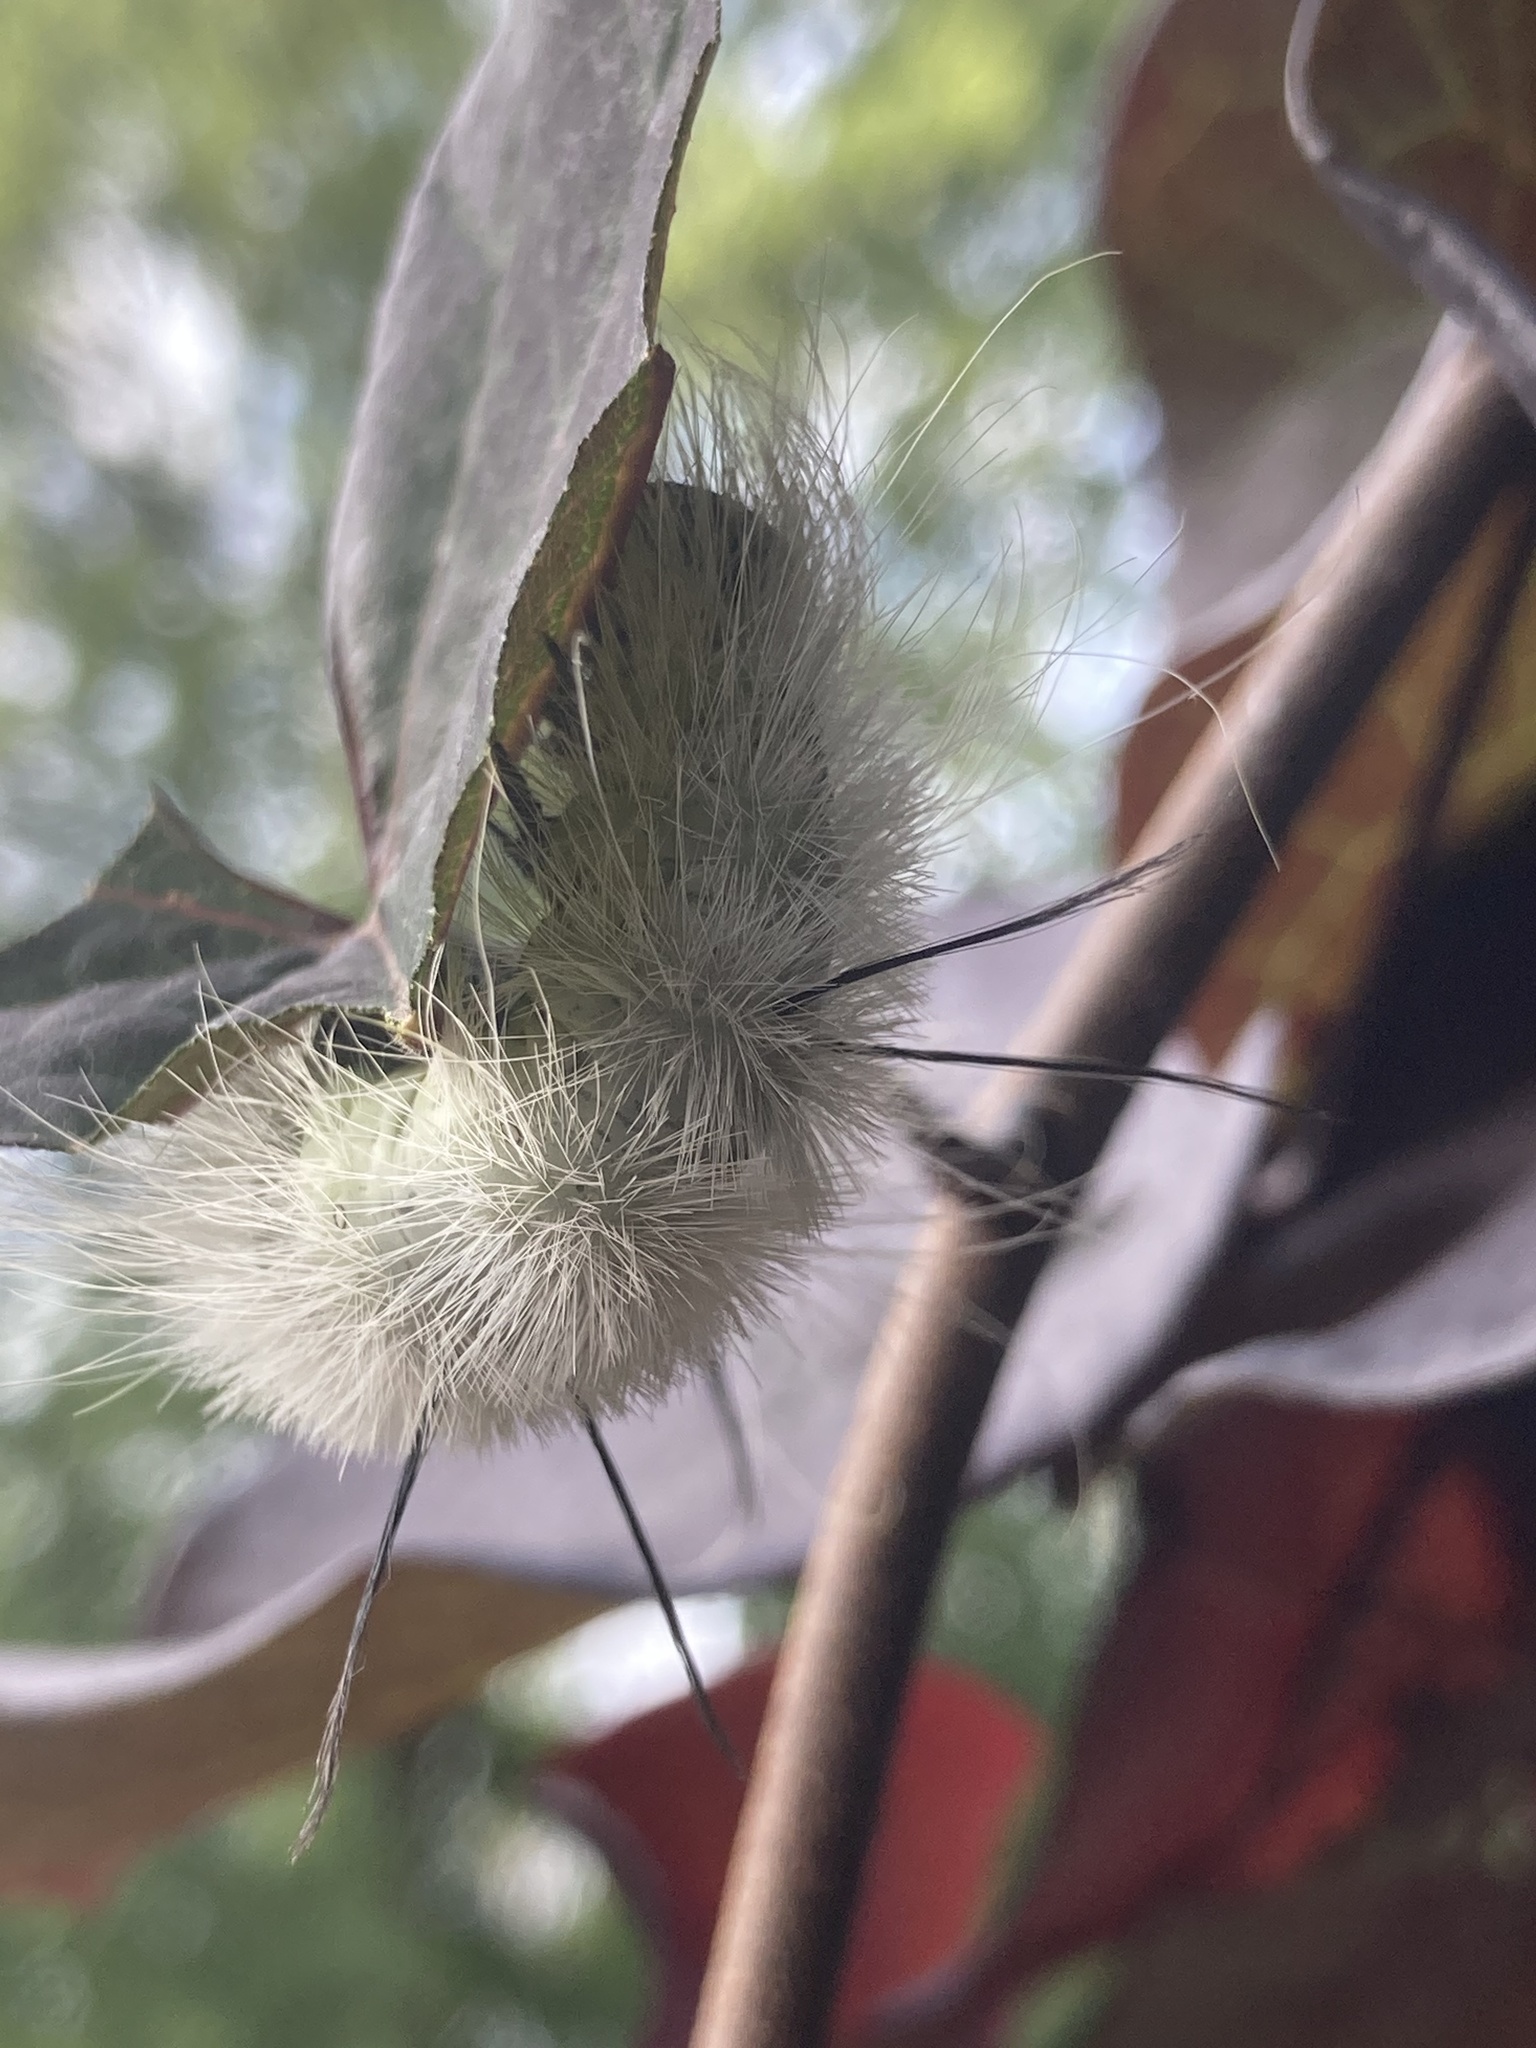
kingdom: Animalia
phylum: Arthropoda
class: Insecta
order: Lepidoptera
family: Noctuidae
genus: Acronicta
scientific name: Acronicta americana
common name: American dagger
